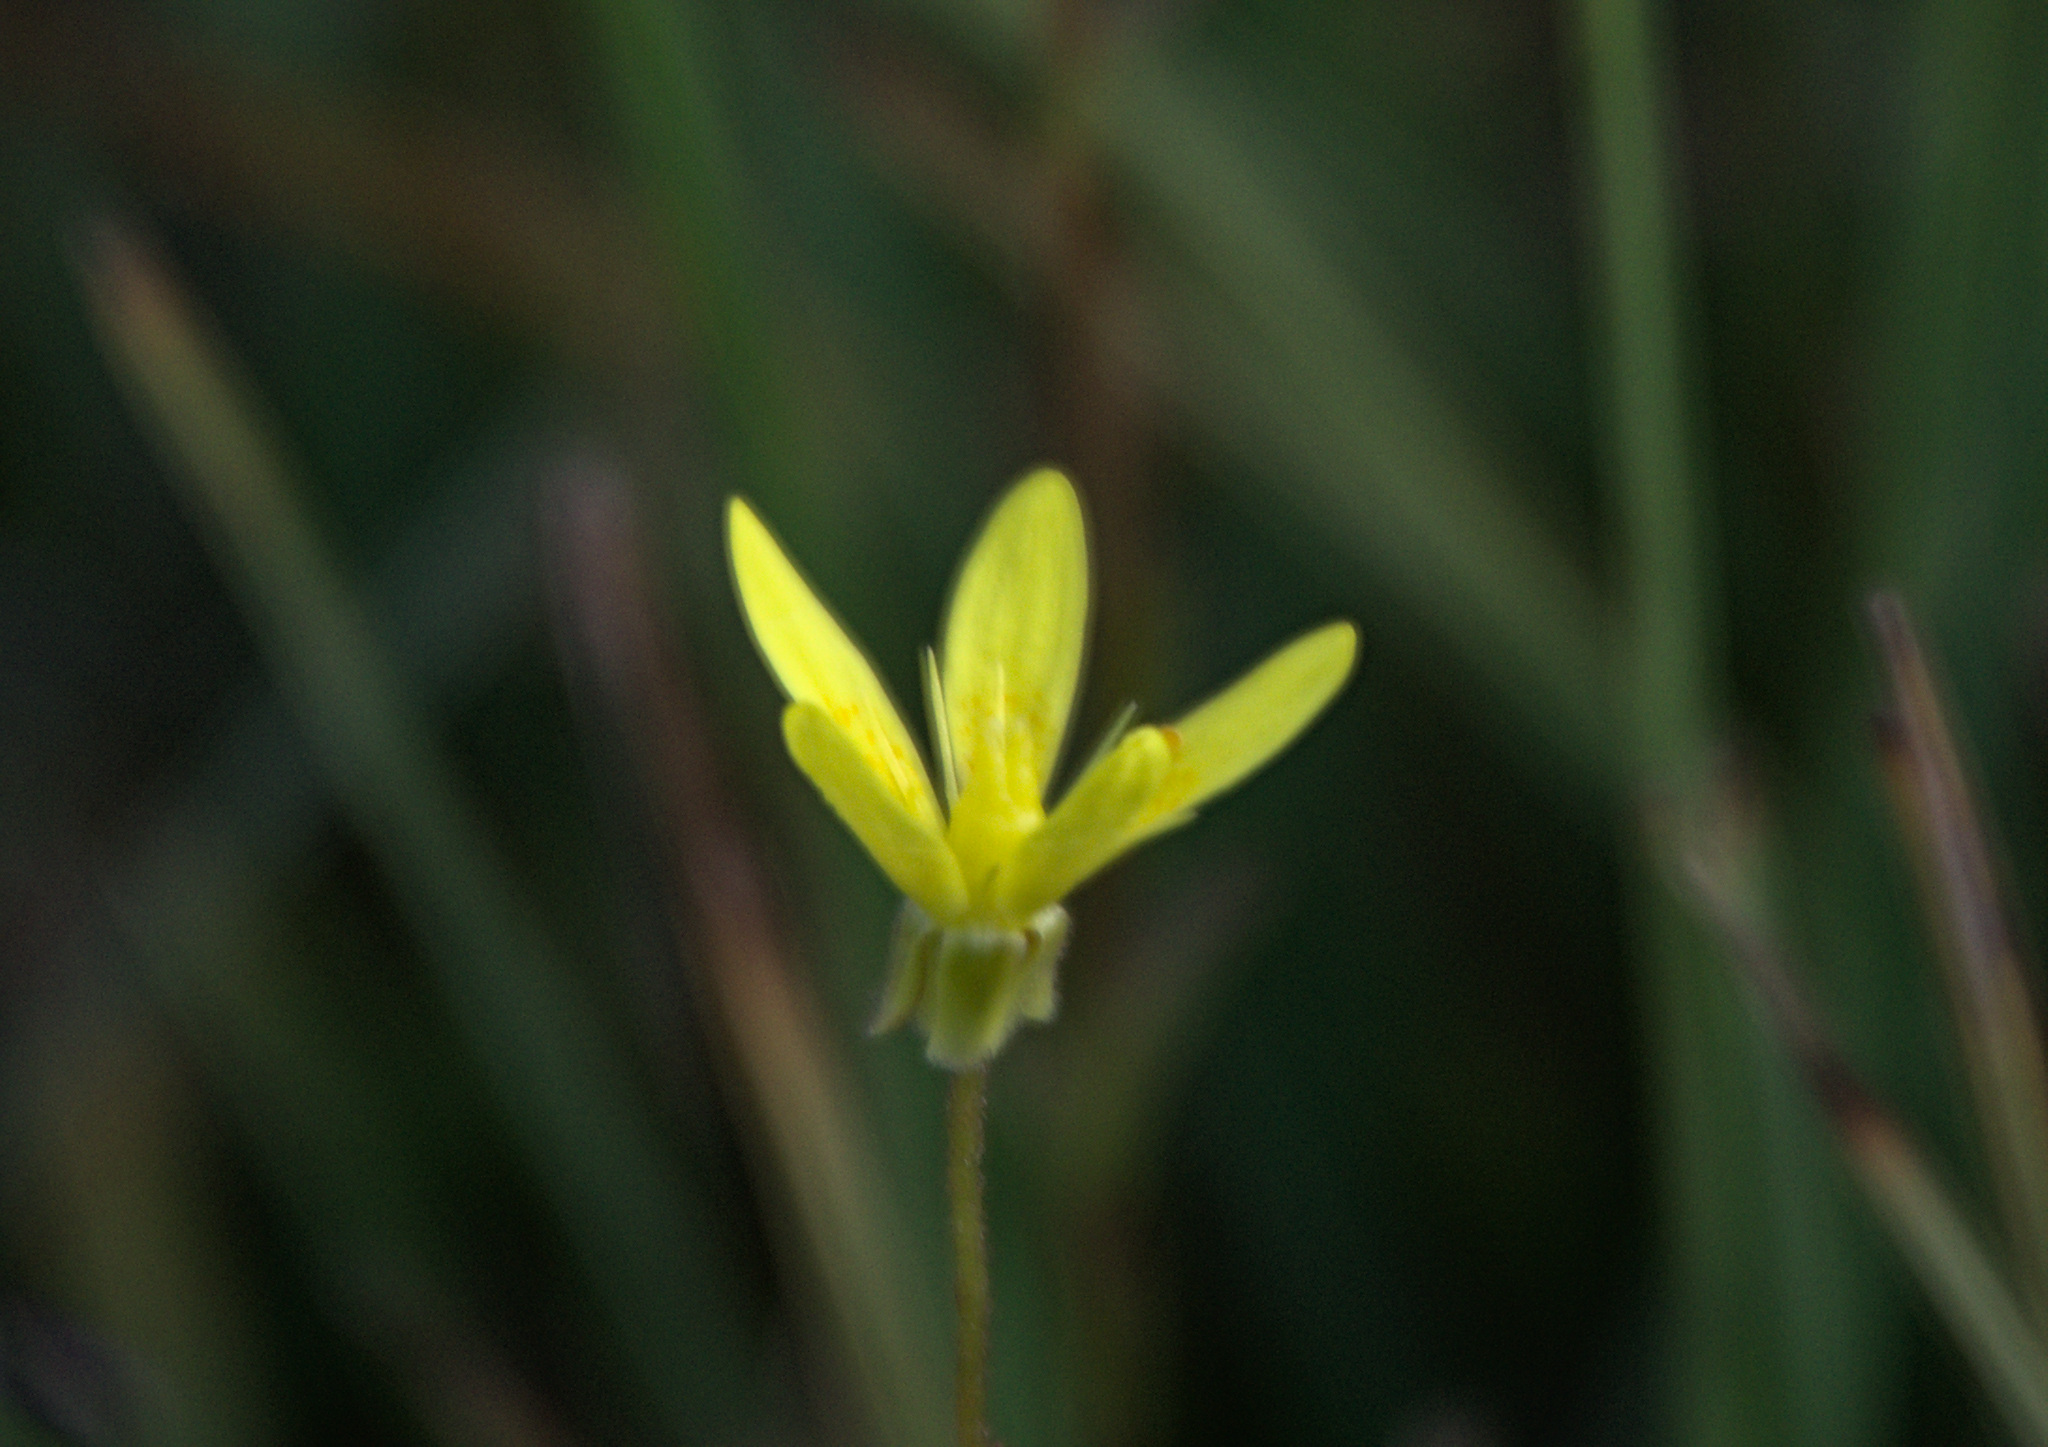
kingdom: Plantae
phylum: Tracheophyta
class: Magnoliopsida
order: Saxifragales
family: Saxifragaceae
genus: Saxifraga
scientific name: Saxifraga hirculus
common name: Yellow marsh saxifrage
